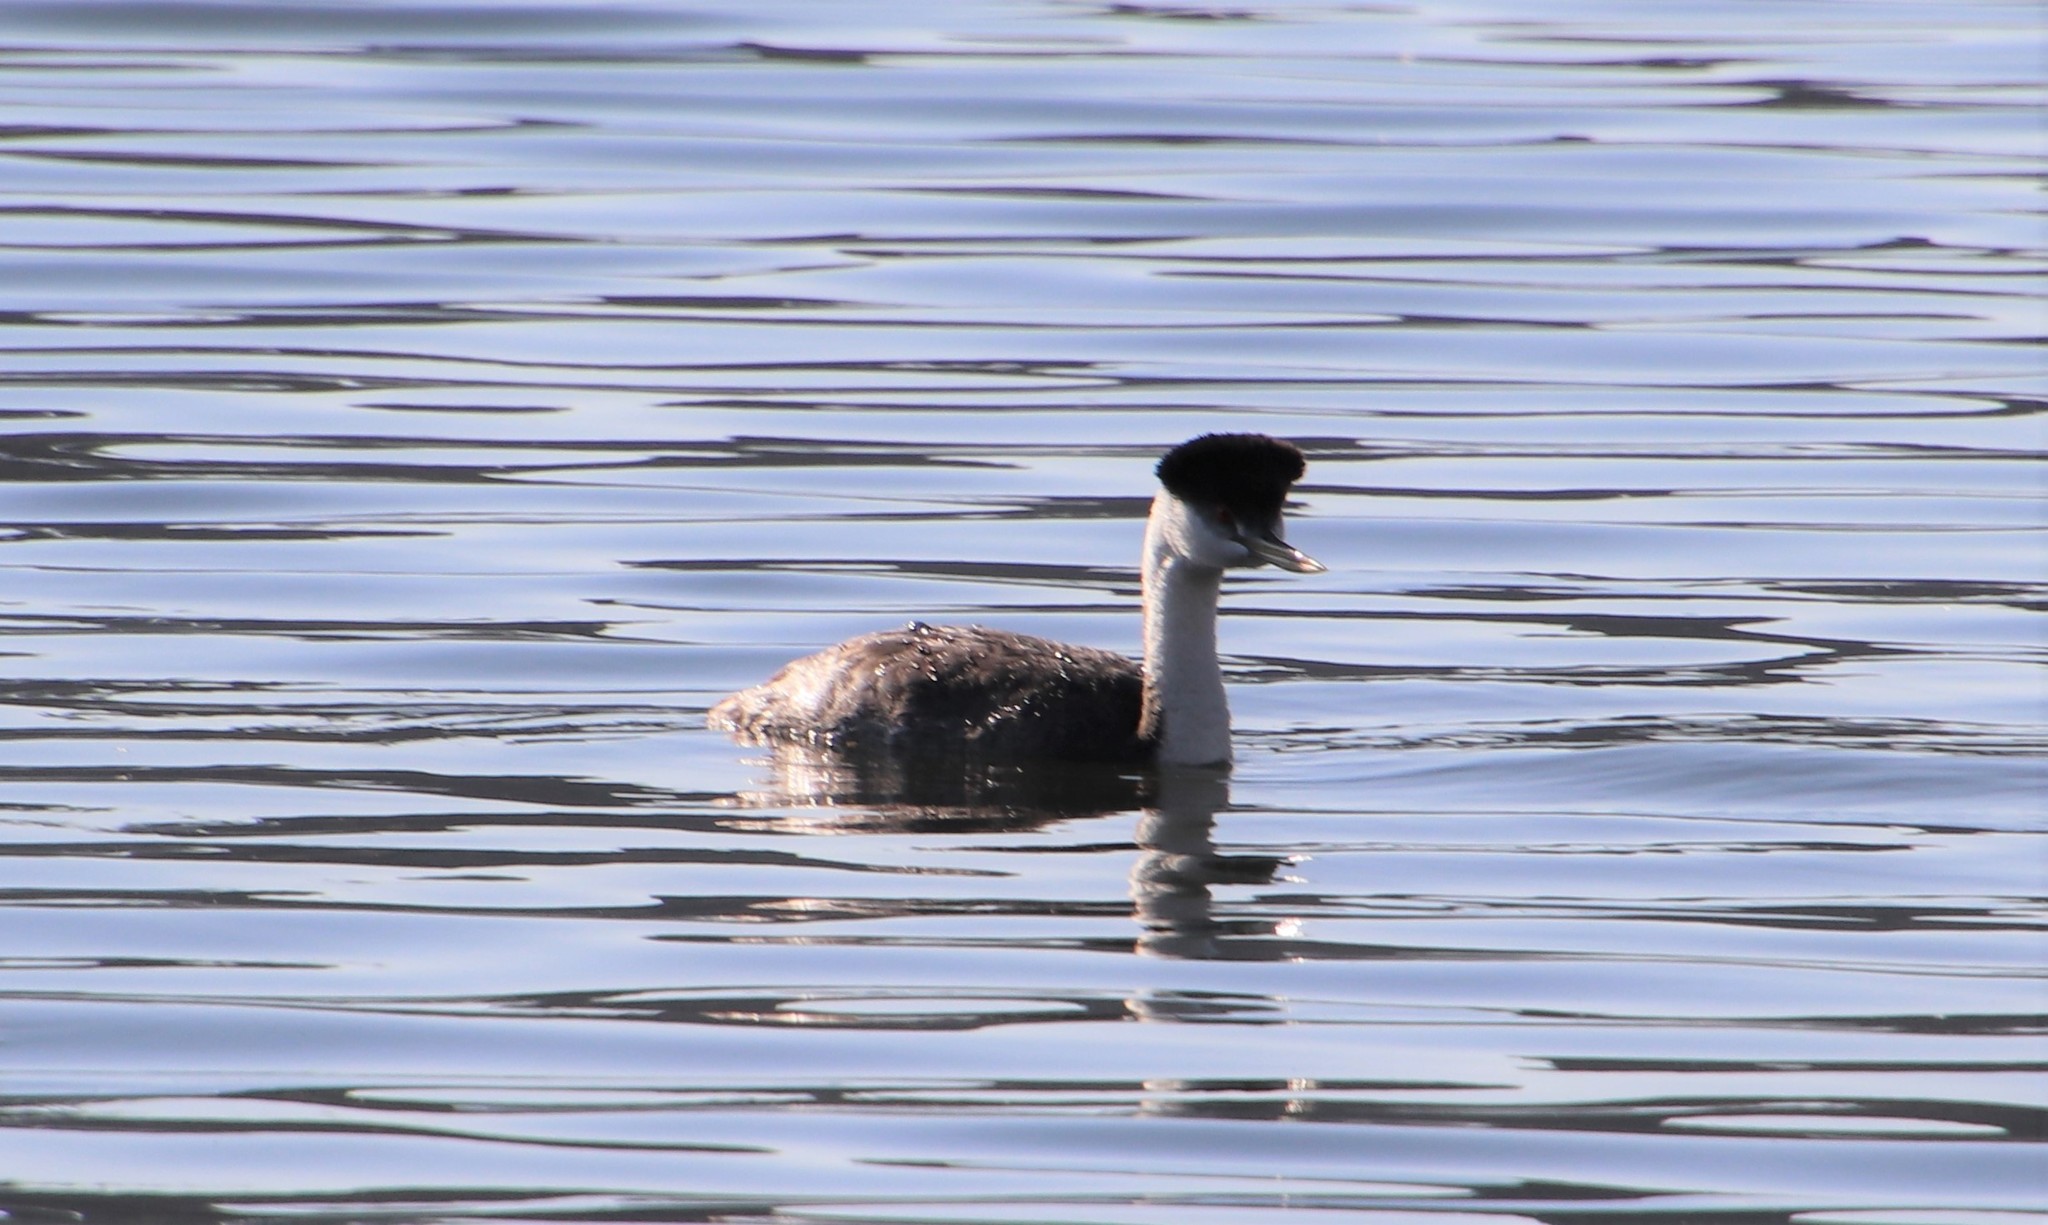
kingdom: Animalia
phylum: Chordata
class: Aves
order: Podicipediformes
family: Podicipedidae
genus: Aechmophorus
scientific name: Aechmophorus occidentalis
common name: Western grebe
